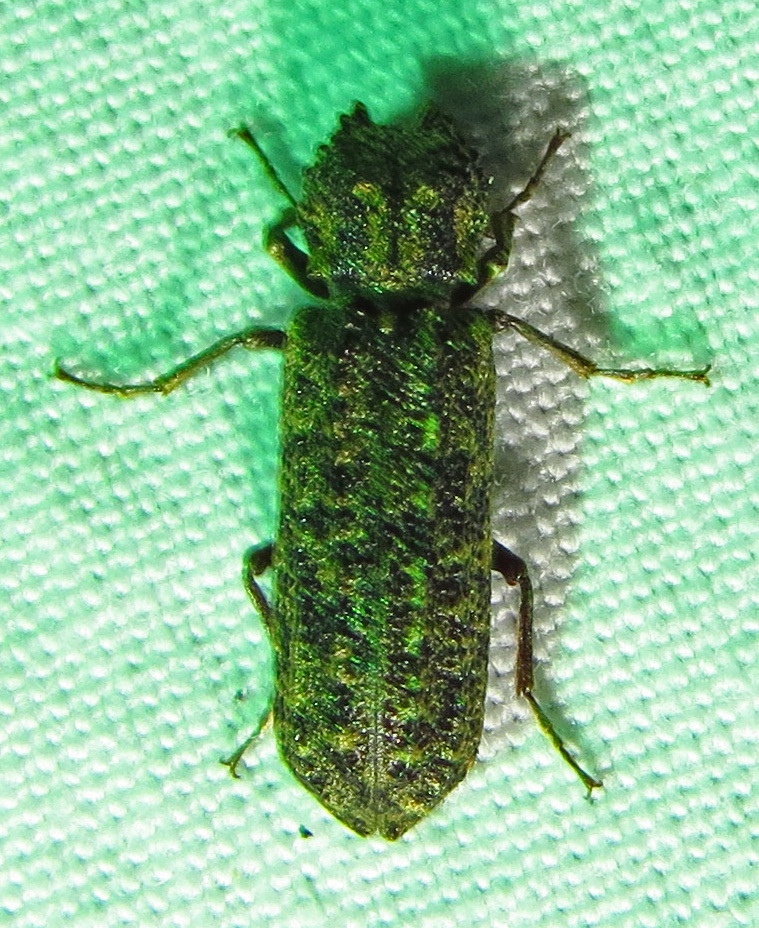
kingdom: Animalia
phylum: Arthropoda
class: Insecta
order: Coleoptera
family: Bostrichidae
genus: Lichenophanes
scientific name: Lichenophanes bicornis
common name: Two-horned powder-post beetle
